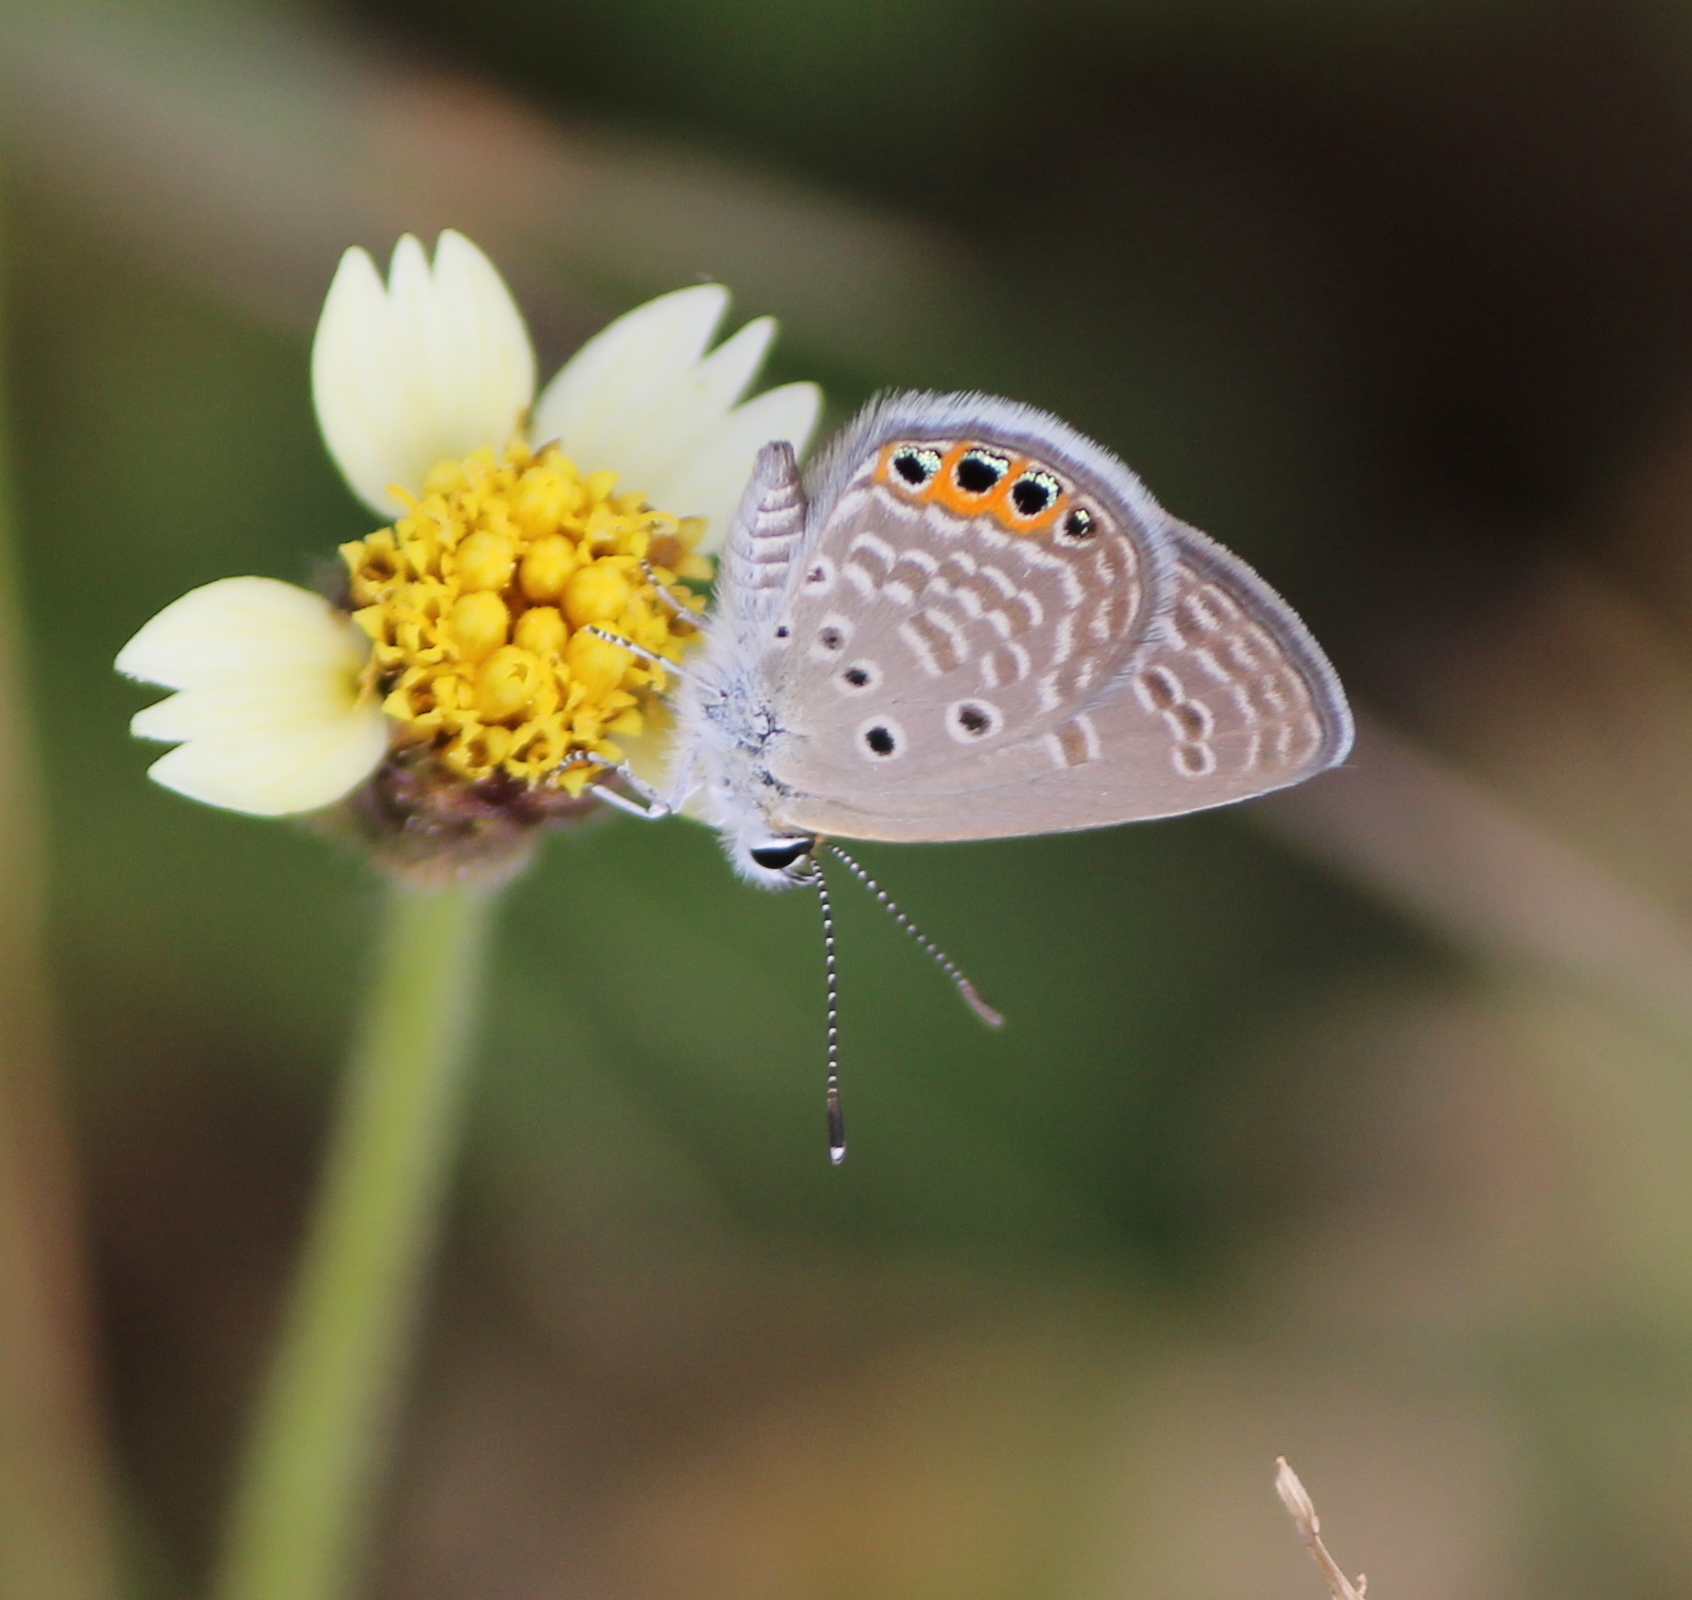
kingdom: Animalia
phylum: Arthropoda
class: Insecta
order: Lepidoptera
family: Lycaenidae
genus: Freyeria
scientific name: Freyeria trochylus
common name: Grass jewel
